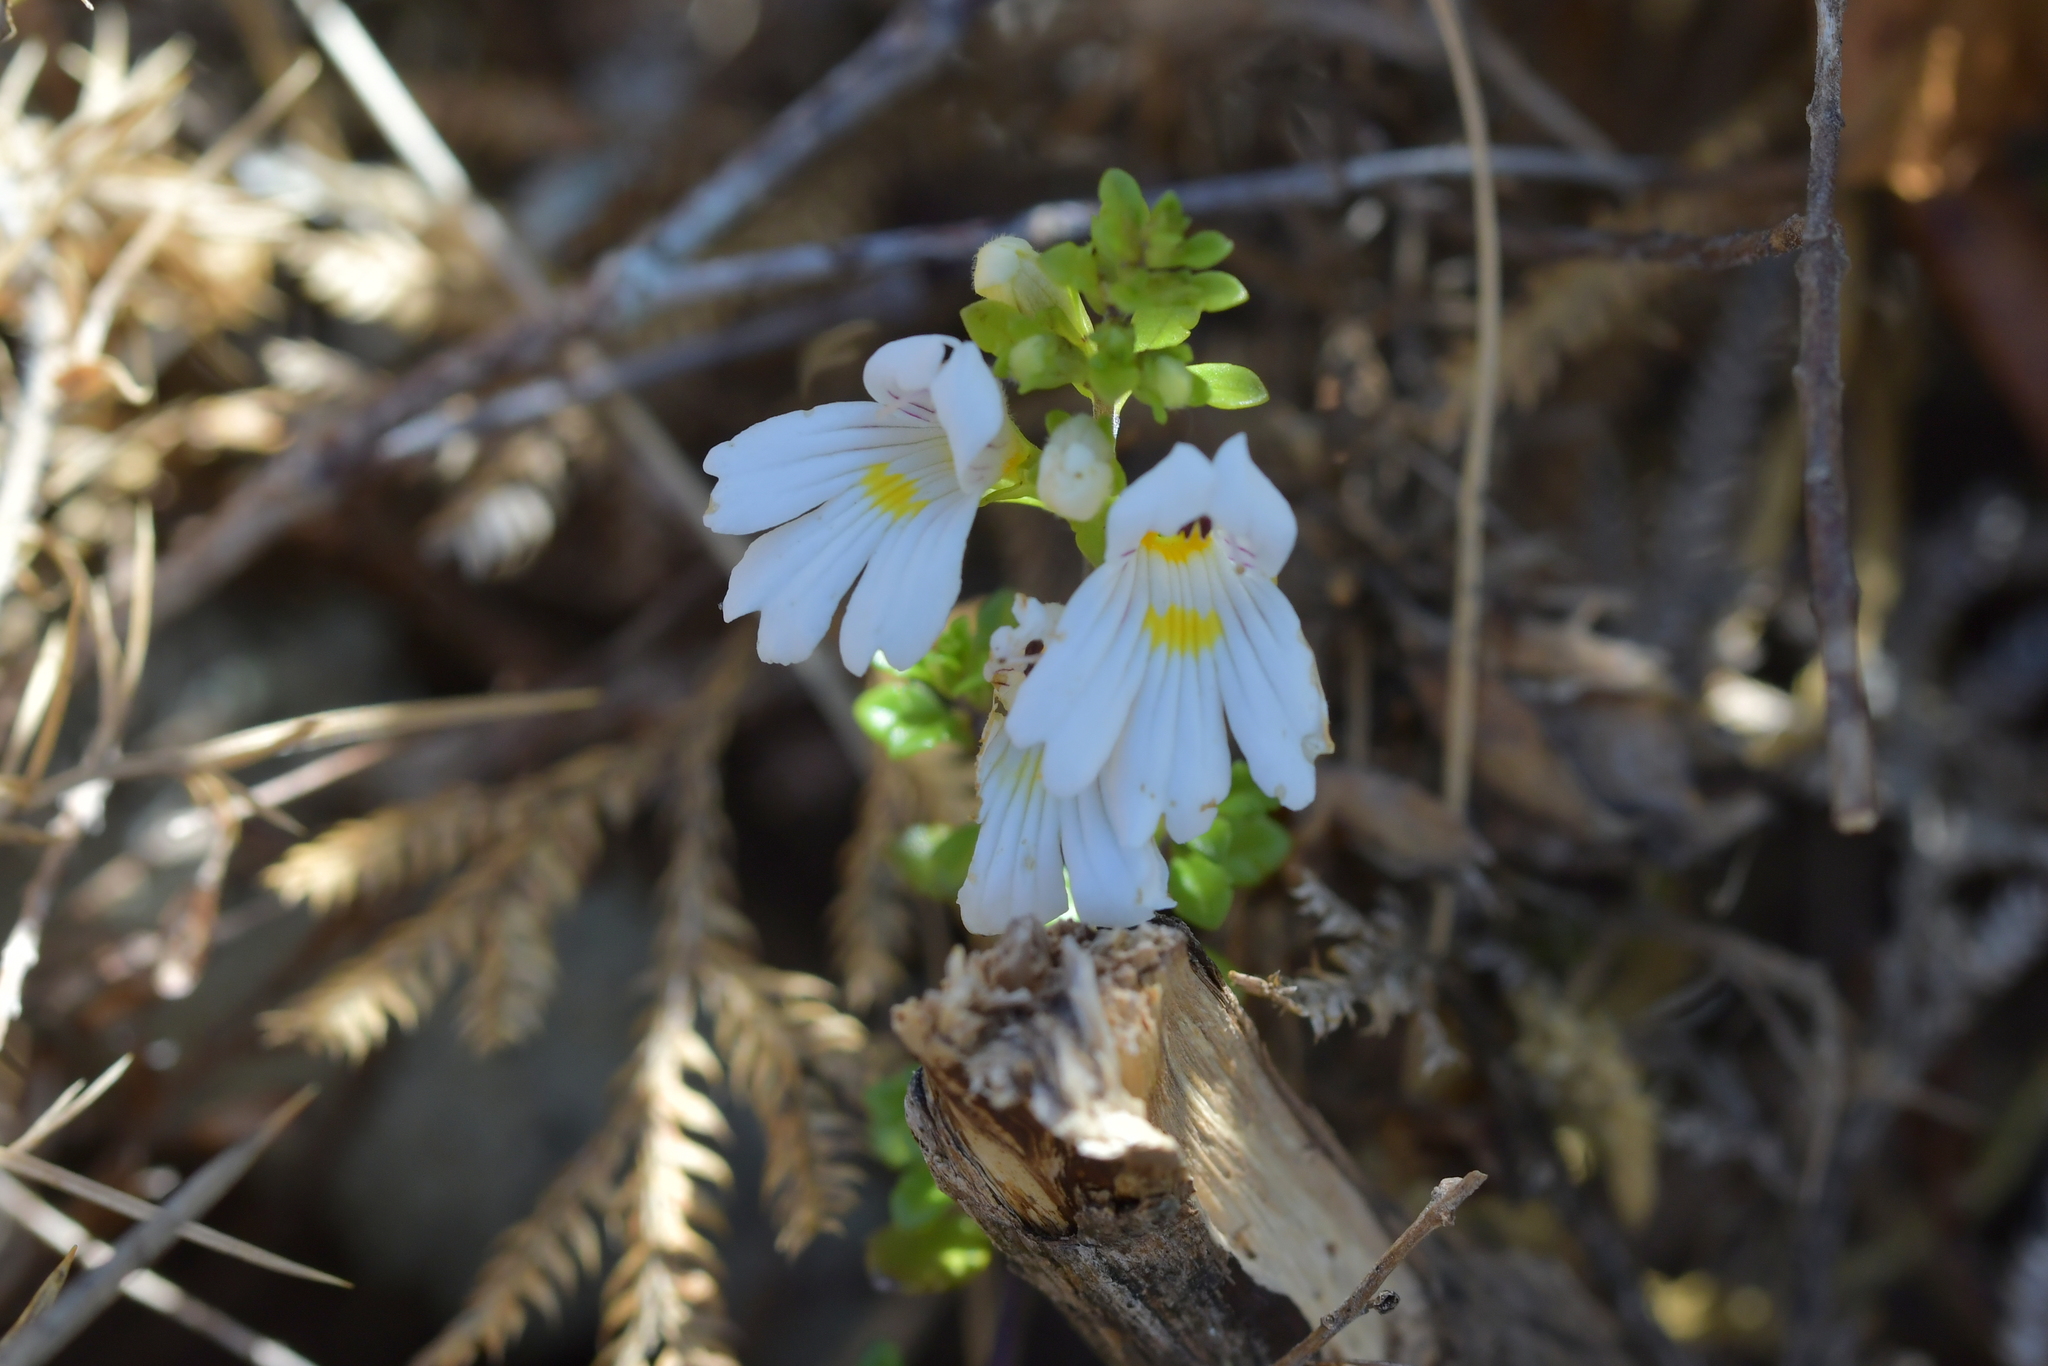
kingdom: Plantae
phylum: Tracheophyta
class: Magnoliopsida
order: Lamiales
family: Orobanchaceae
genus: Euphrasia
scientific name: Euphrasia cuneata
